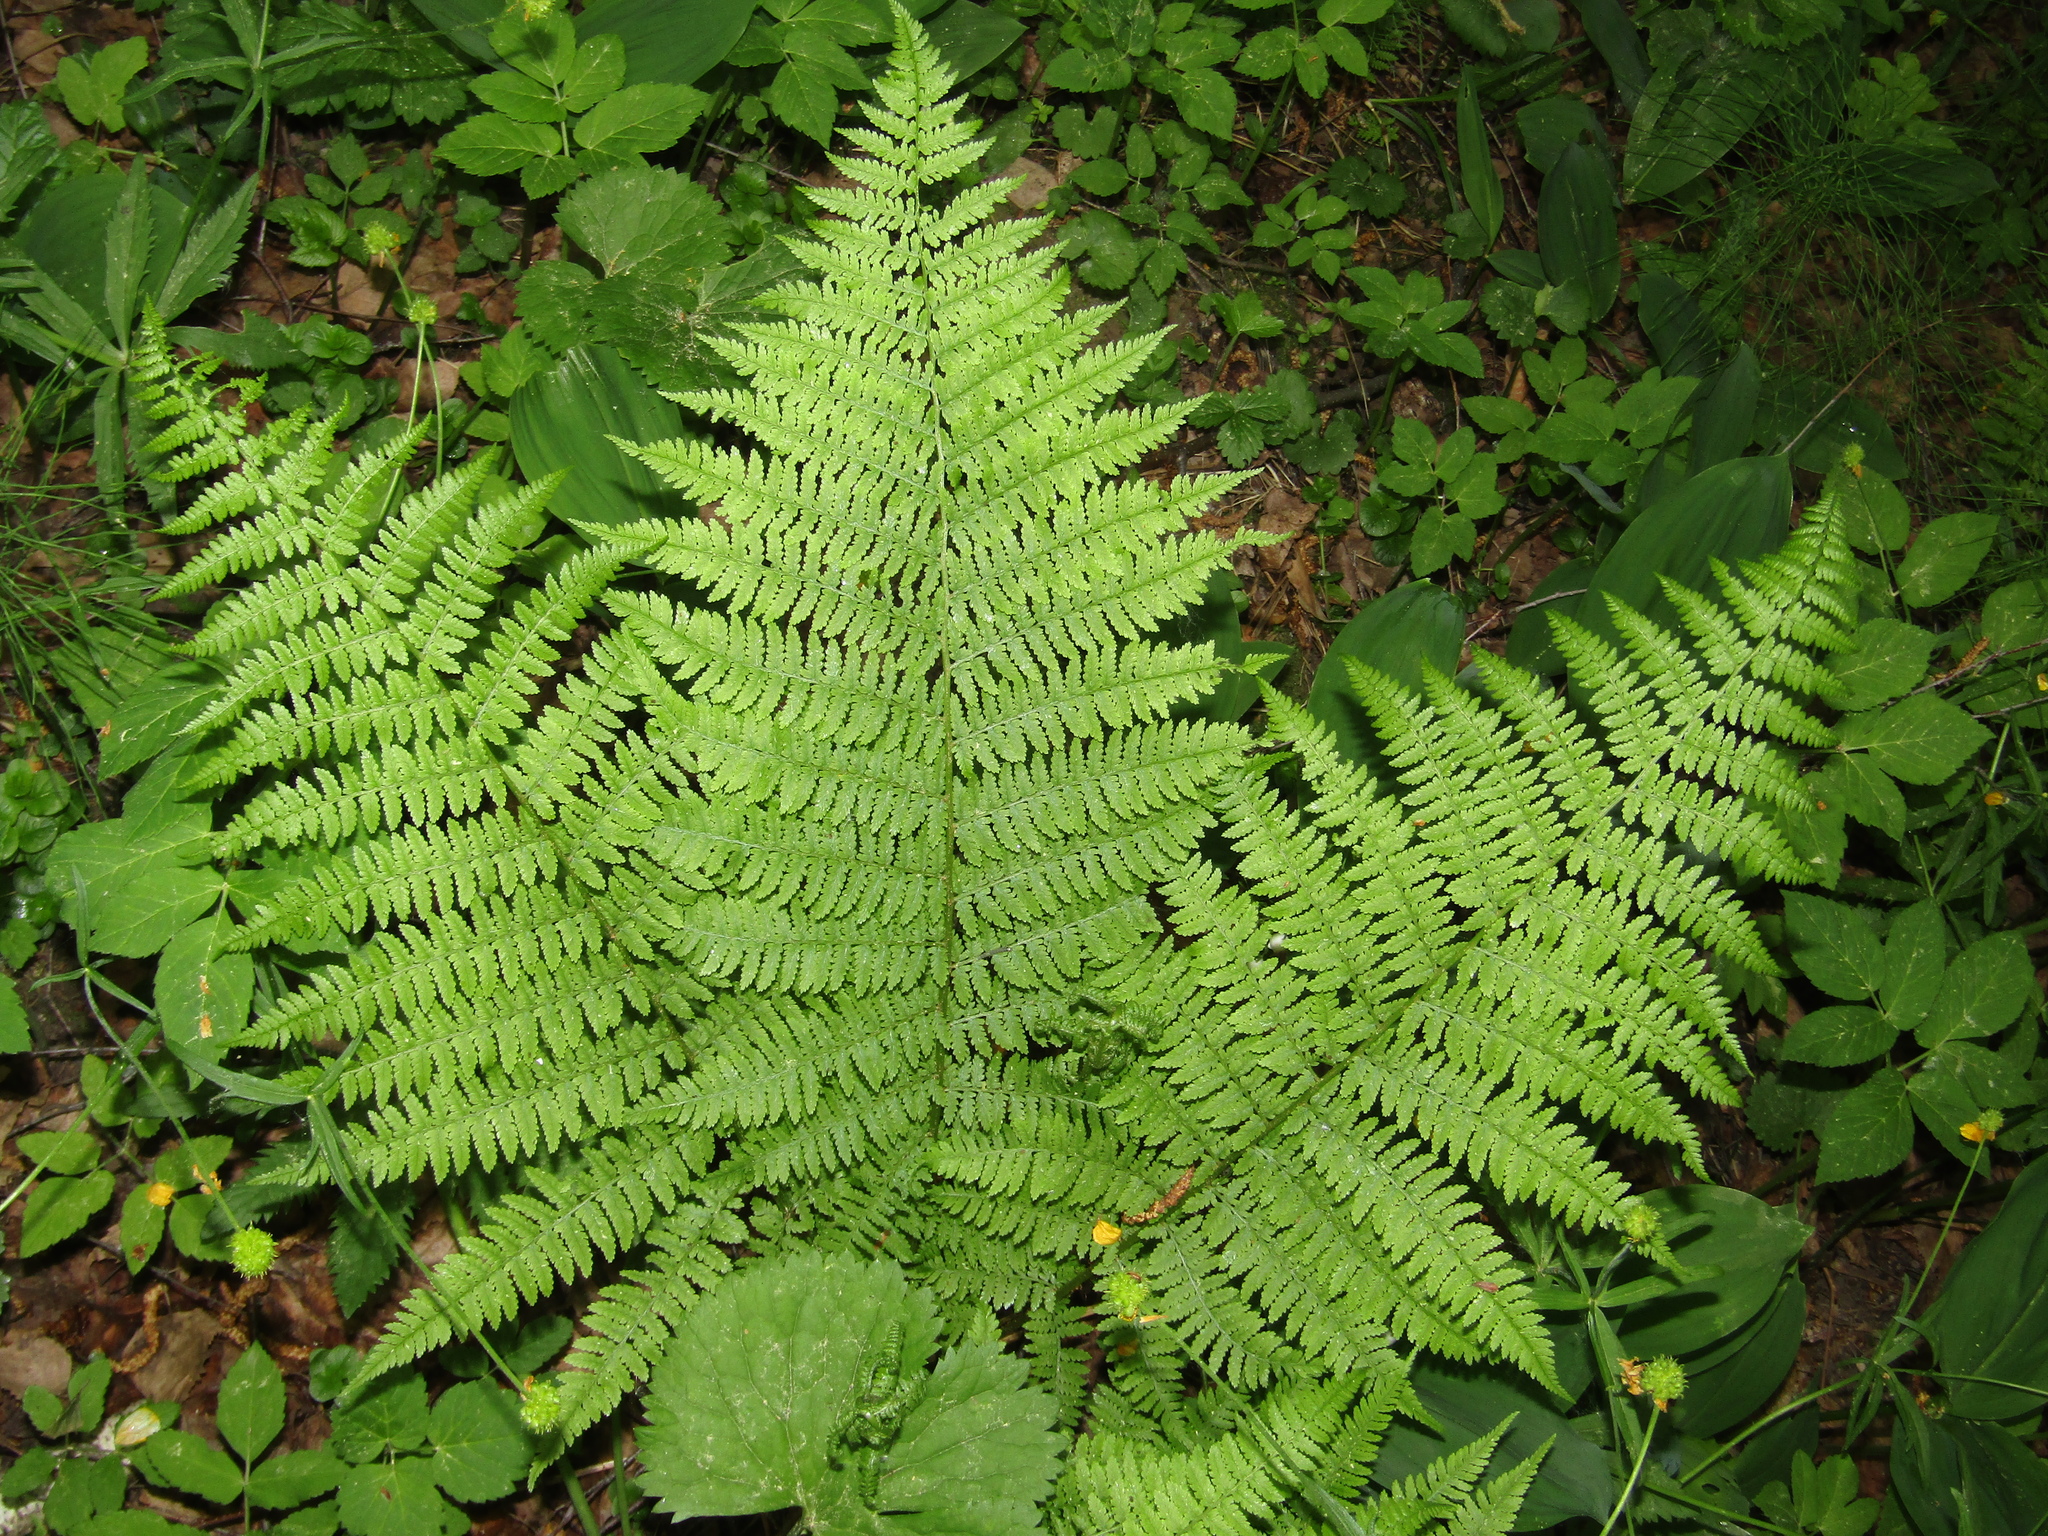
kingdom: Plantae
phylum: Tracheophyta
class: Polypodiopsida
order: Polypodiales
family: Athyriaceae
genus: Athyrium
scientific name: Athyrium filix-femina
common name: Lady fern
